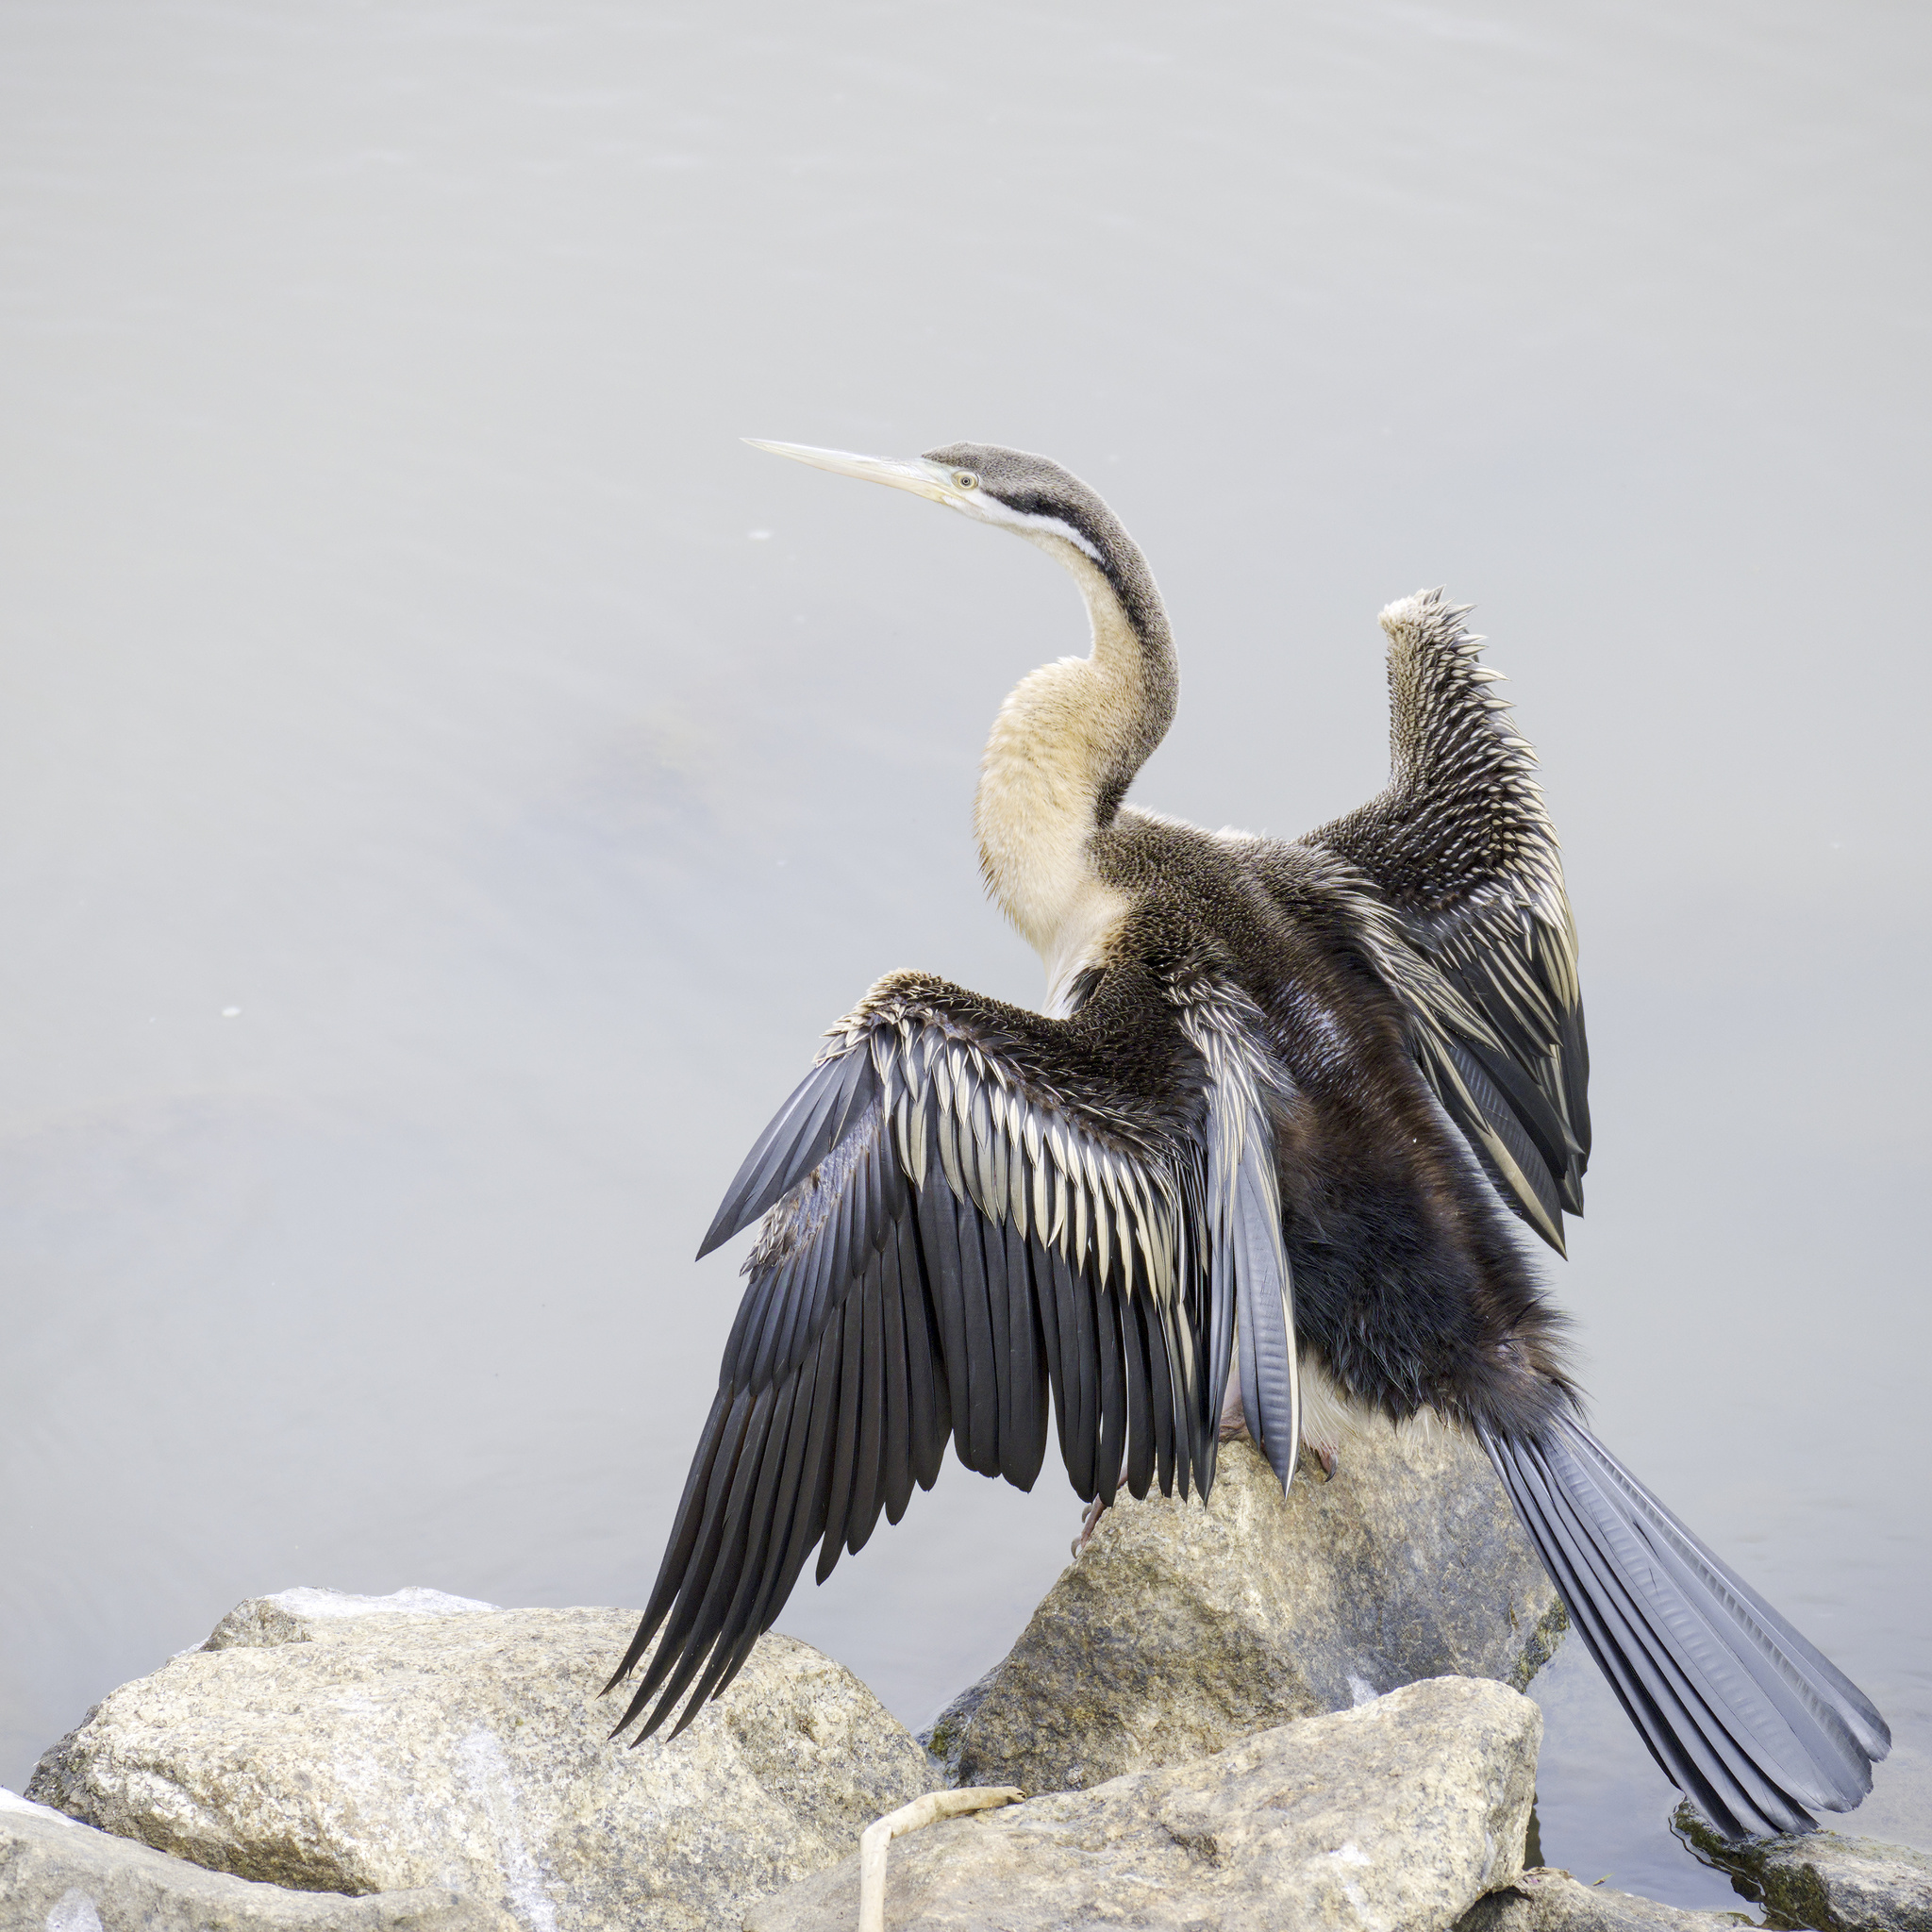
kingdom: Animalia
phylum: Chordata
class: Aves
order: Suliformes
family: Anhingidae
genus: Anhinga
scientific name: Anhinga novaehollandiae
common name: Australasian darter
